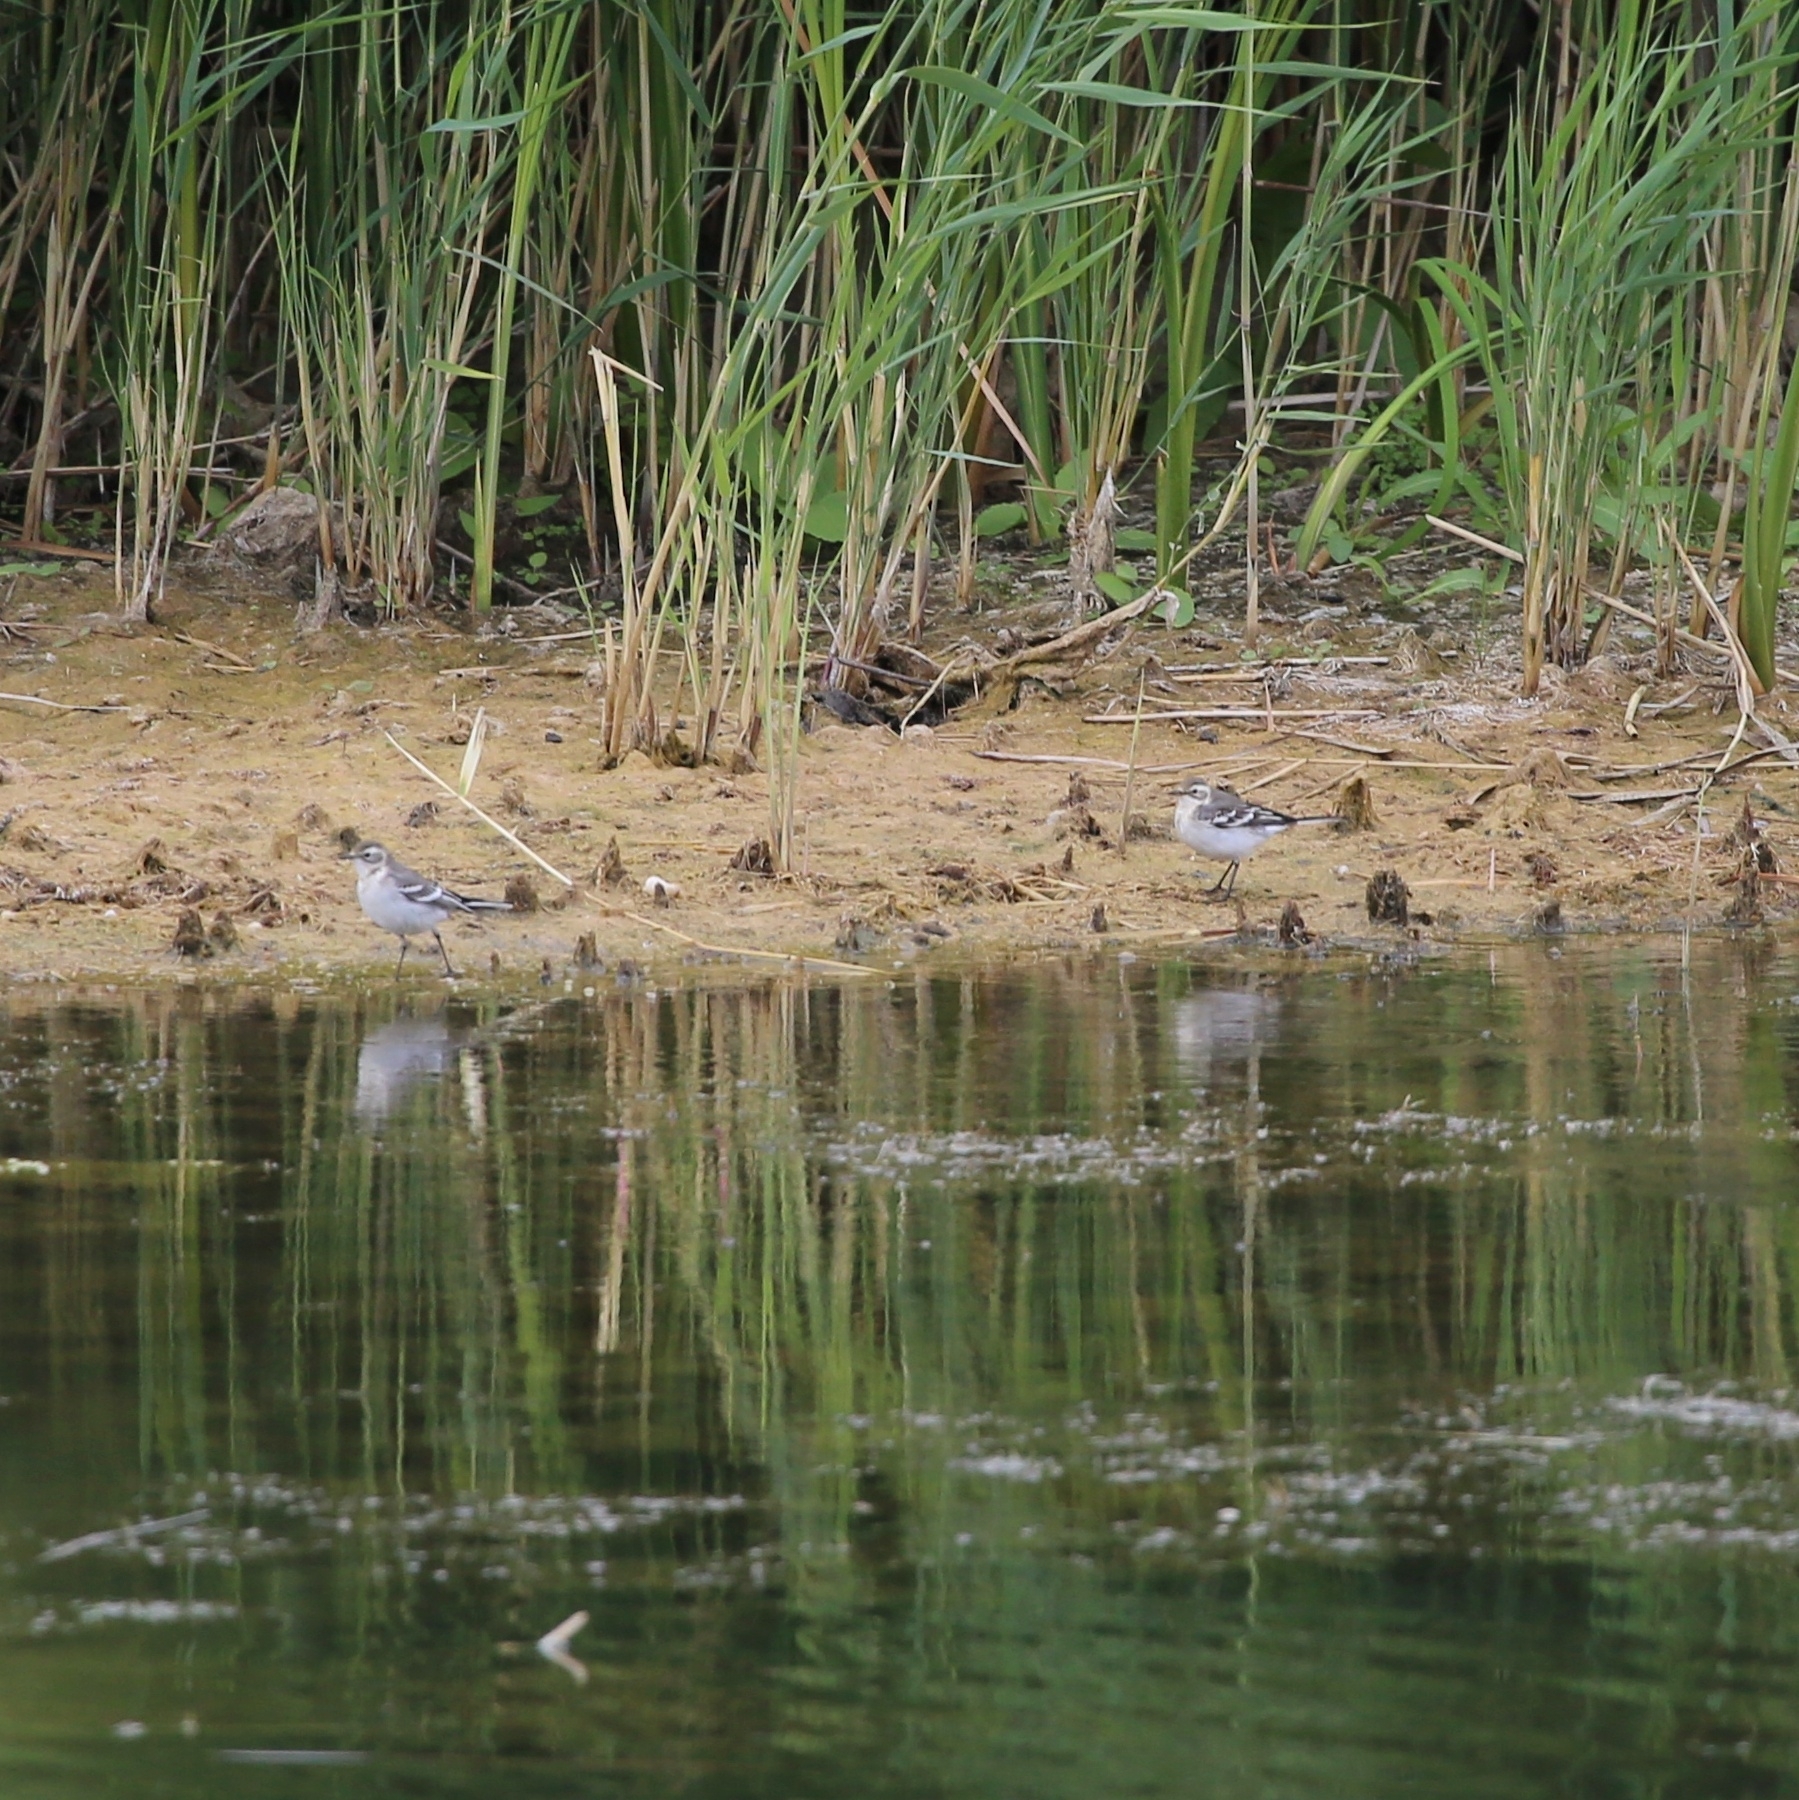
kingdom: Animalia
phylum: Chordata
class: Aves
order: Passeriformes
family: Motacillidae
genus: Motacilla
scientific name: Motacilla alba
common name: White wagtail
